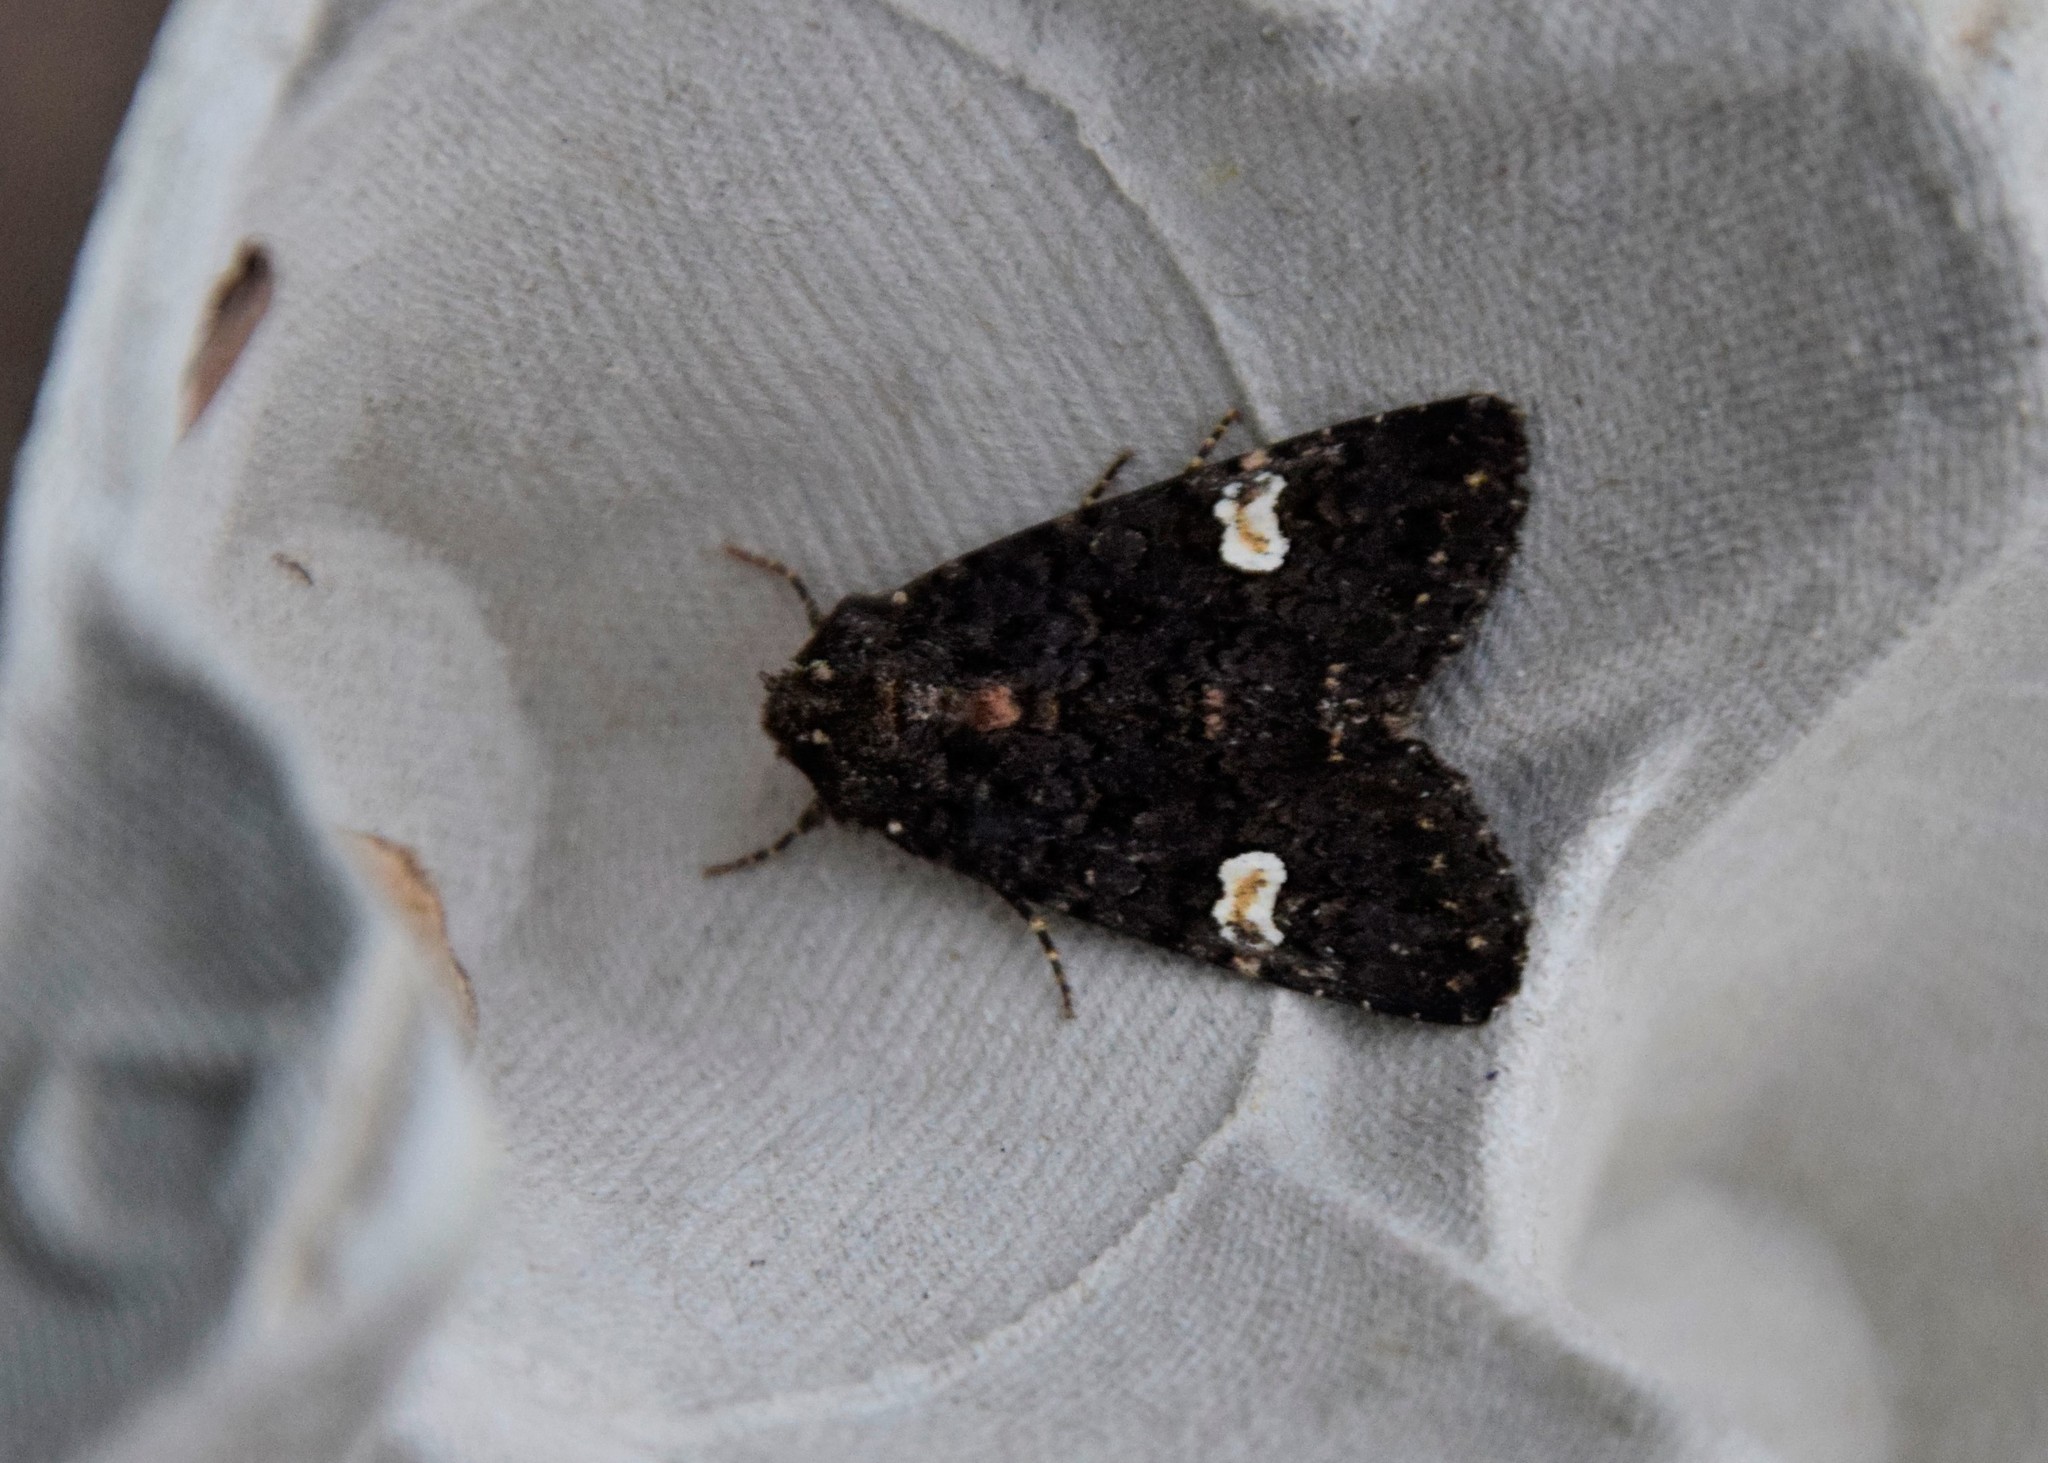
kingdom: Animalia
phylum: Arthropoda
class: Insecta
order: Lepidoptera
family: Noctuidae
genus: Melanchra
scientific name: Melanchra persicariae
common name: Dot moth
